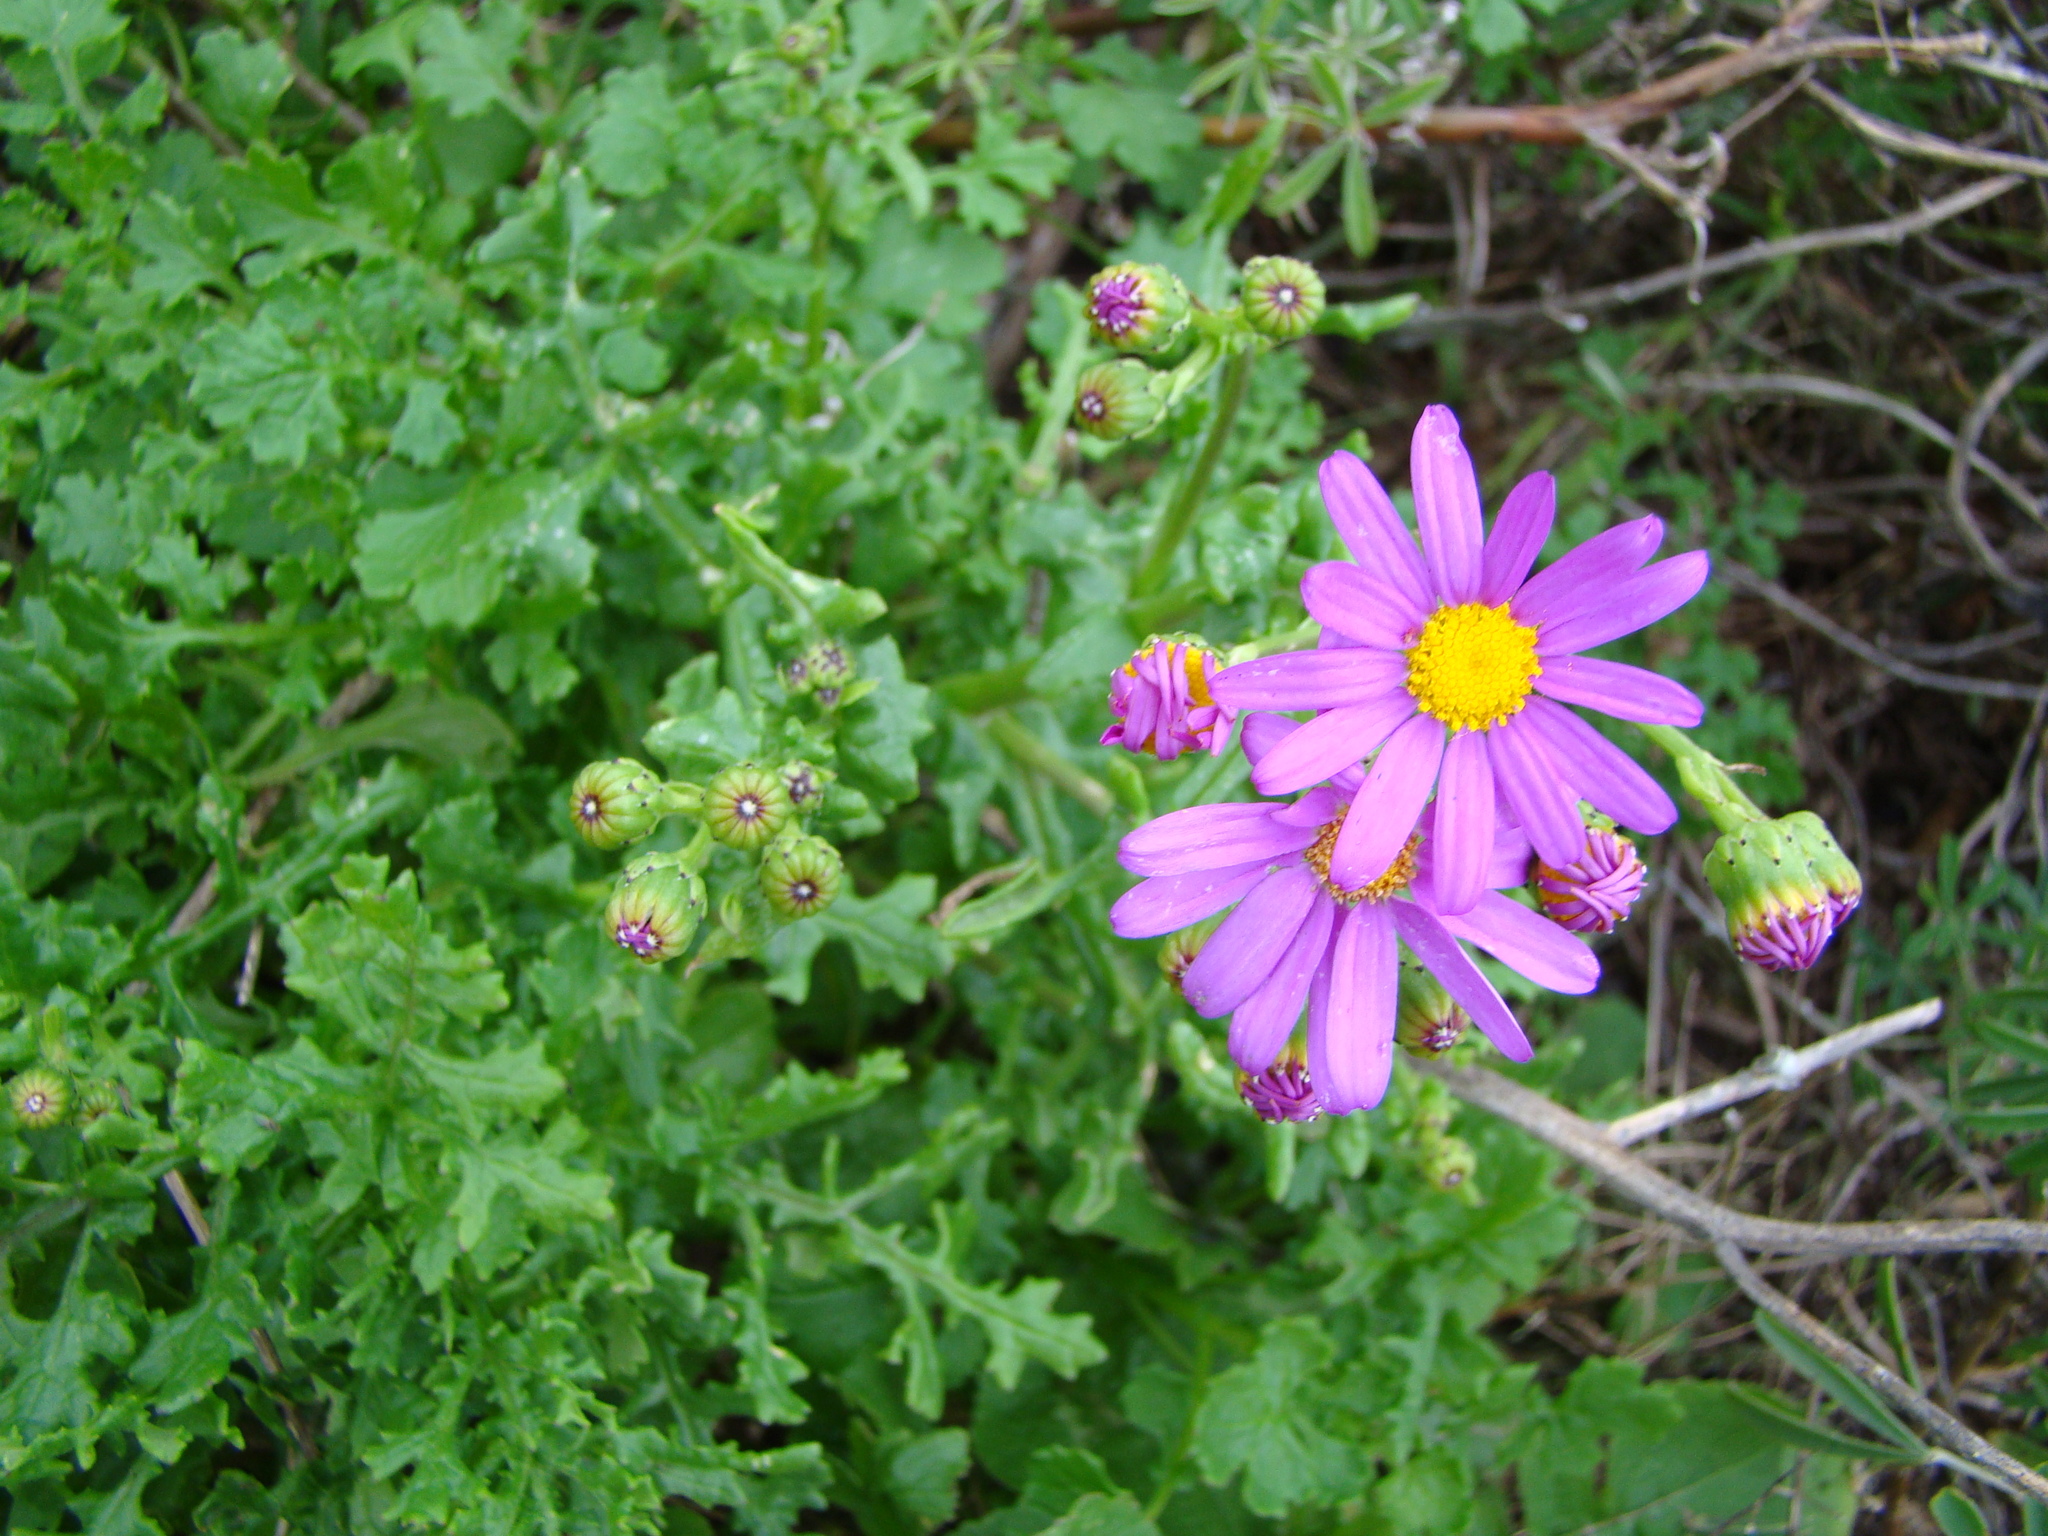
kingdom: Plantae
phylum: Tracheophyta
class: Magnoliopsida
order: Asterales
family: Asteraceae
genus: Senecio
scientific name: Senecio elegans
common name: Purple groundsel
